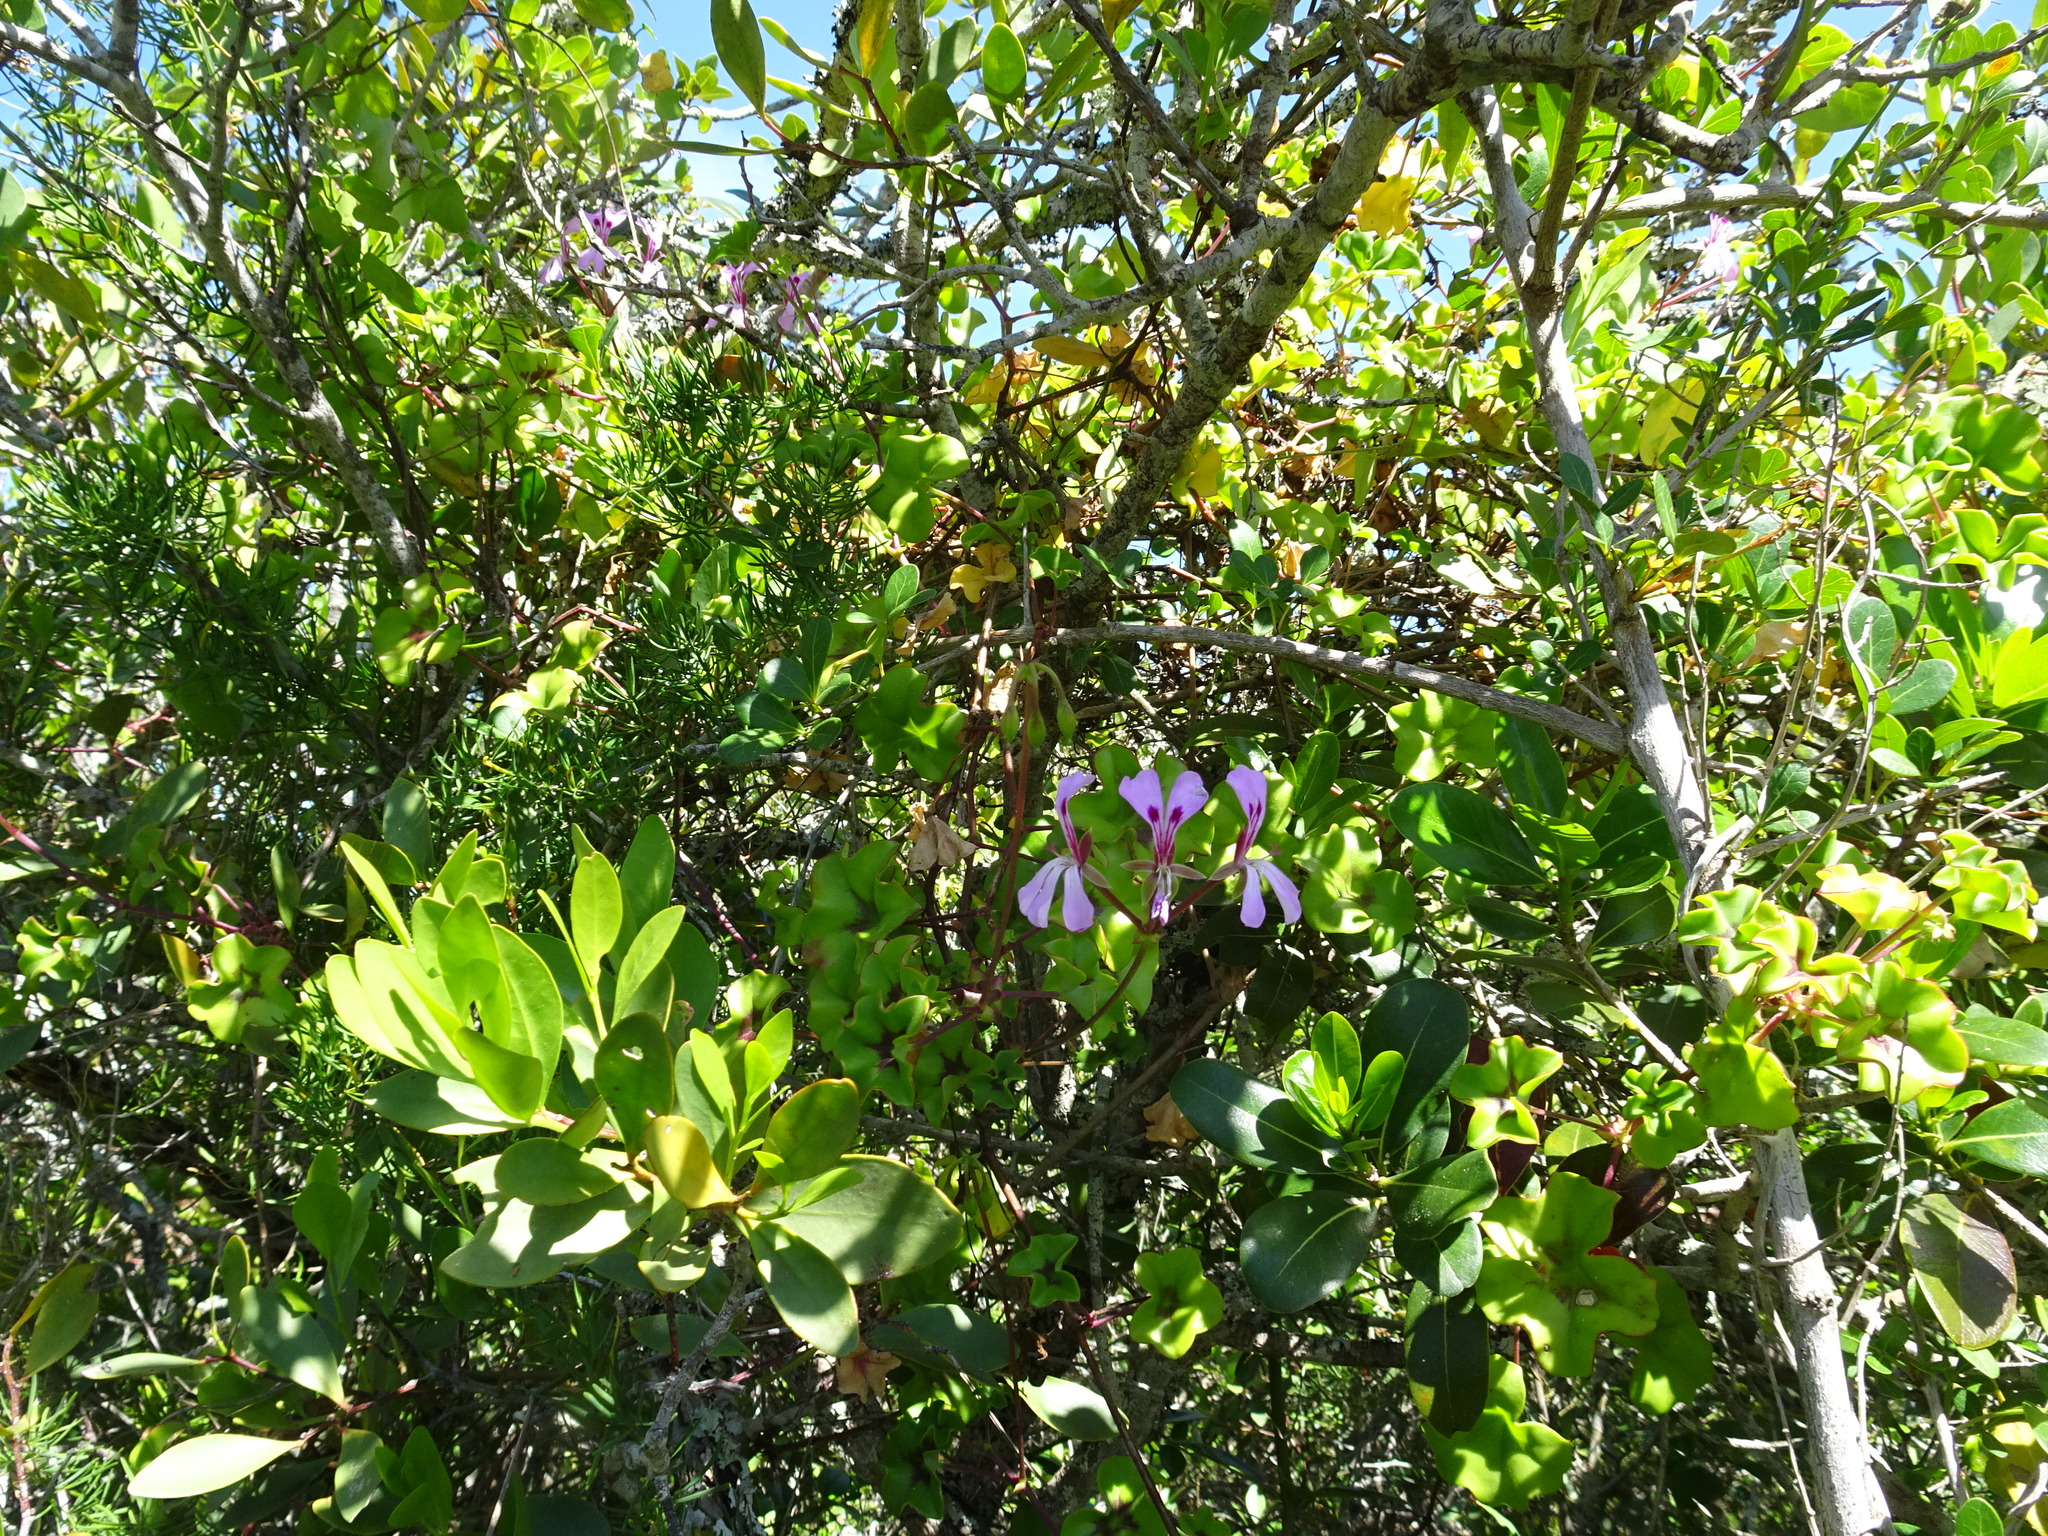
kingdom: Plantae
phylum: Tracheophyta
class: Magnoliopsida
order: Geraniales
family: Geraniaceae
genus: Pelargonium
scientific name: Pelargonium peltatum
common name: Ivyleaf geranium
